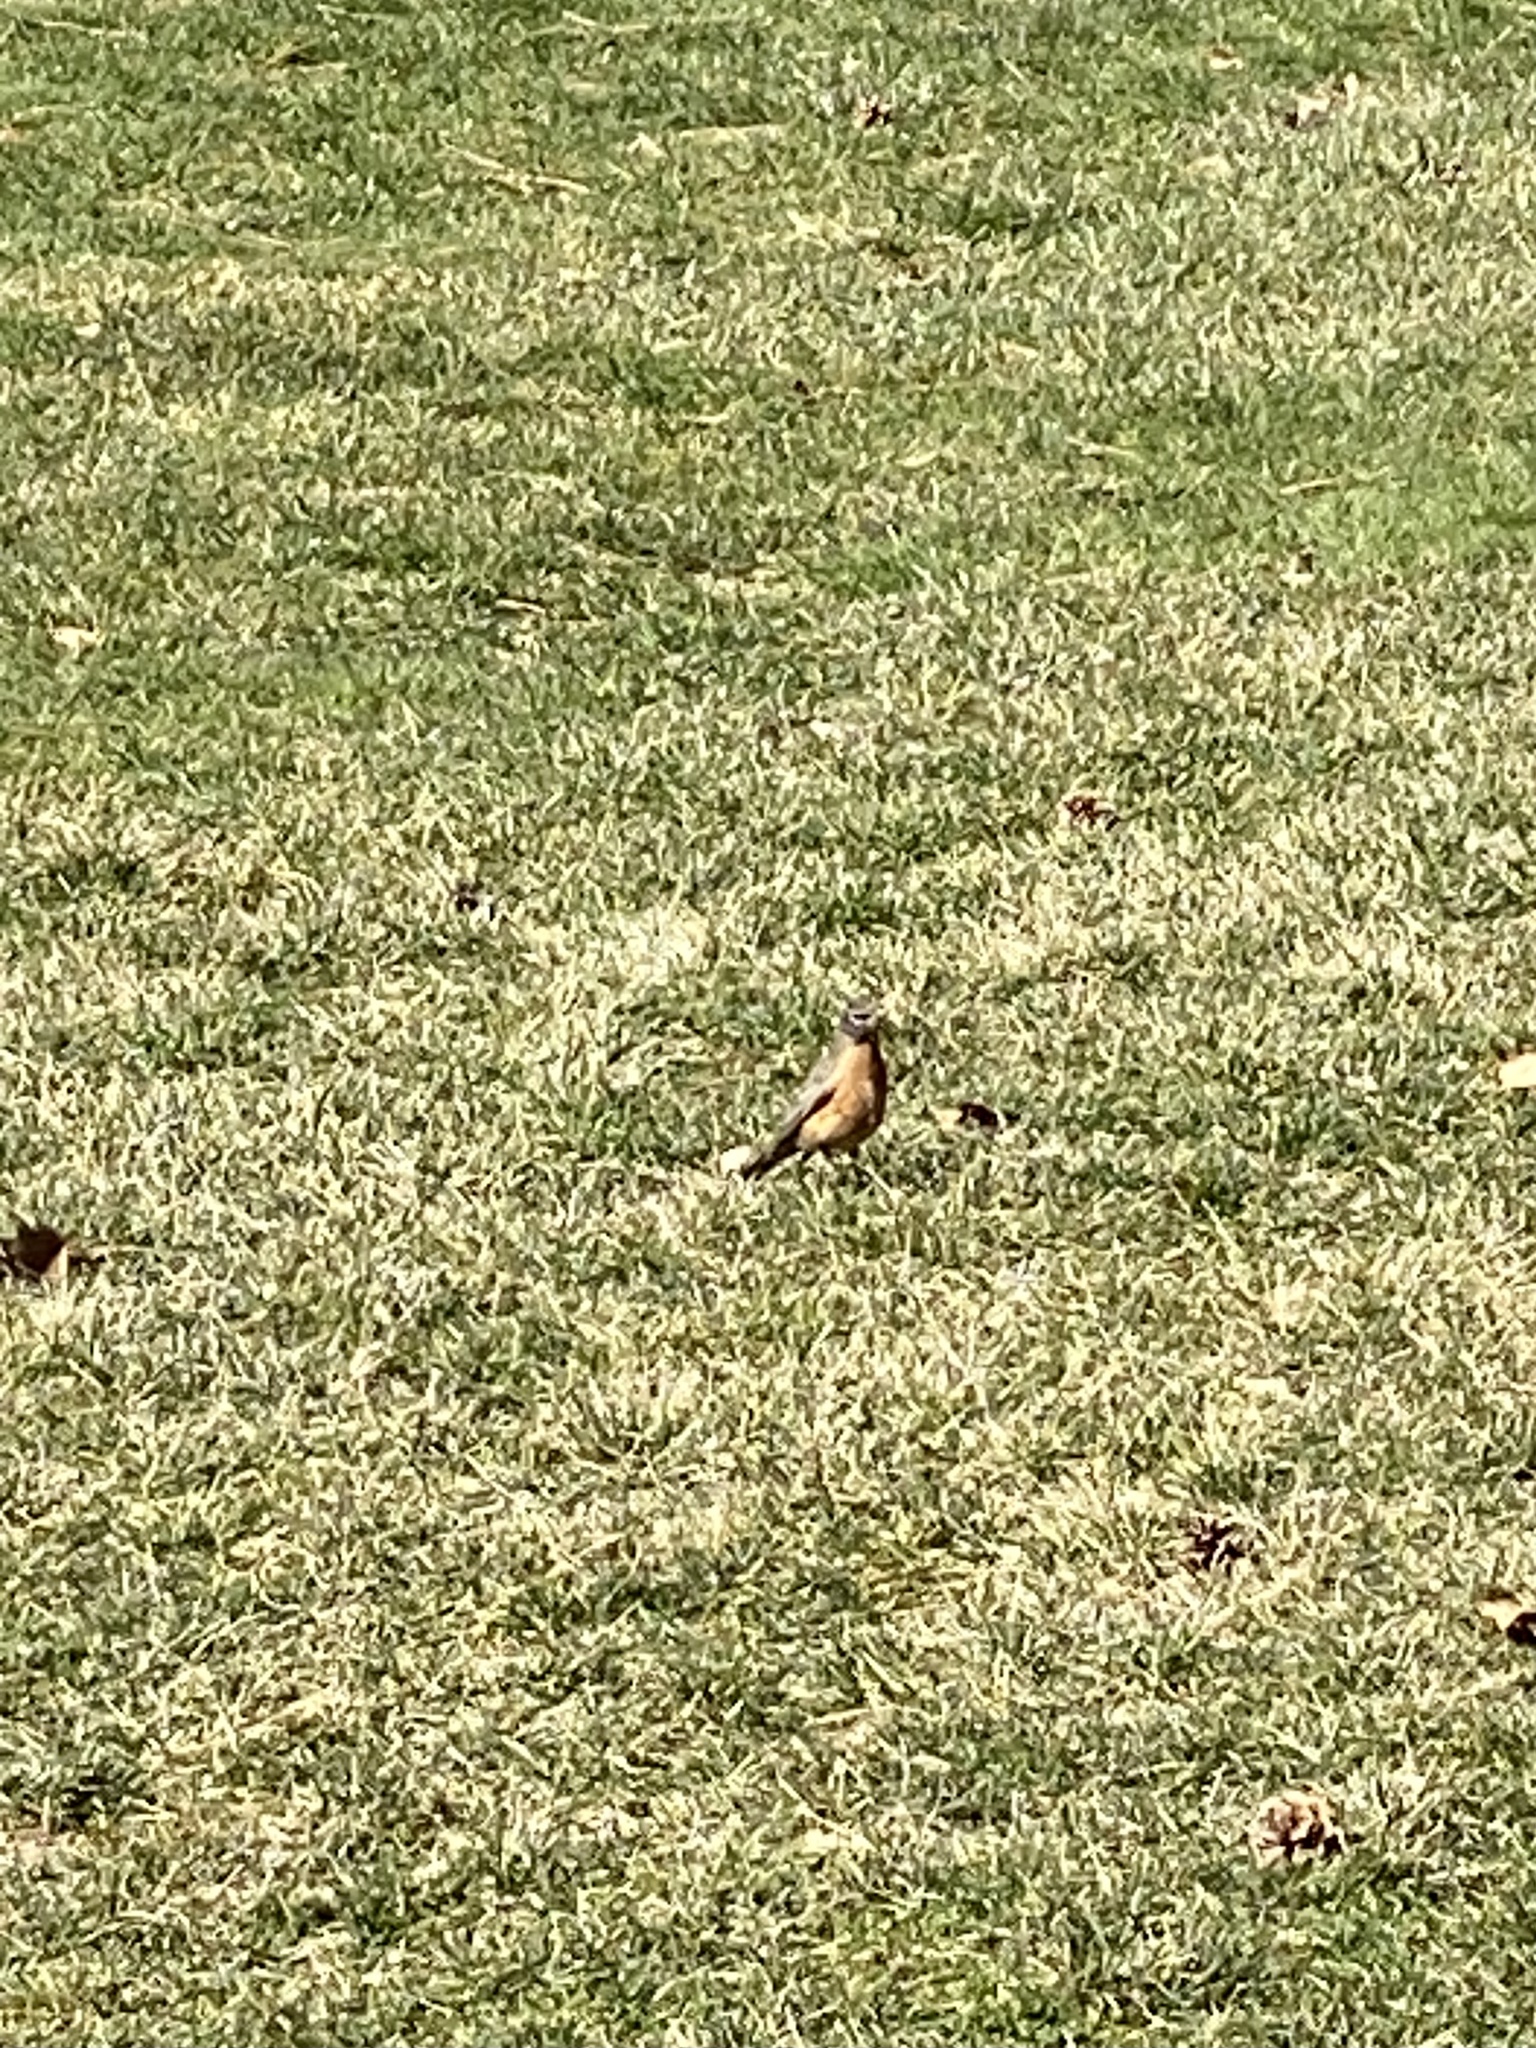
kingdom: Animalia
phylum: Chordata
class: Aves
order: Passeriformes
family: Turdidae
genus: Turdus
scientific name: Turdus migratorius
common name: American robin
